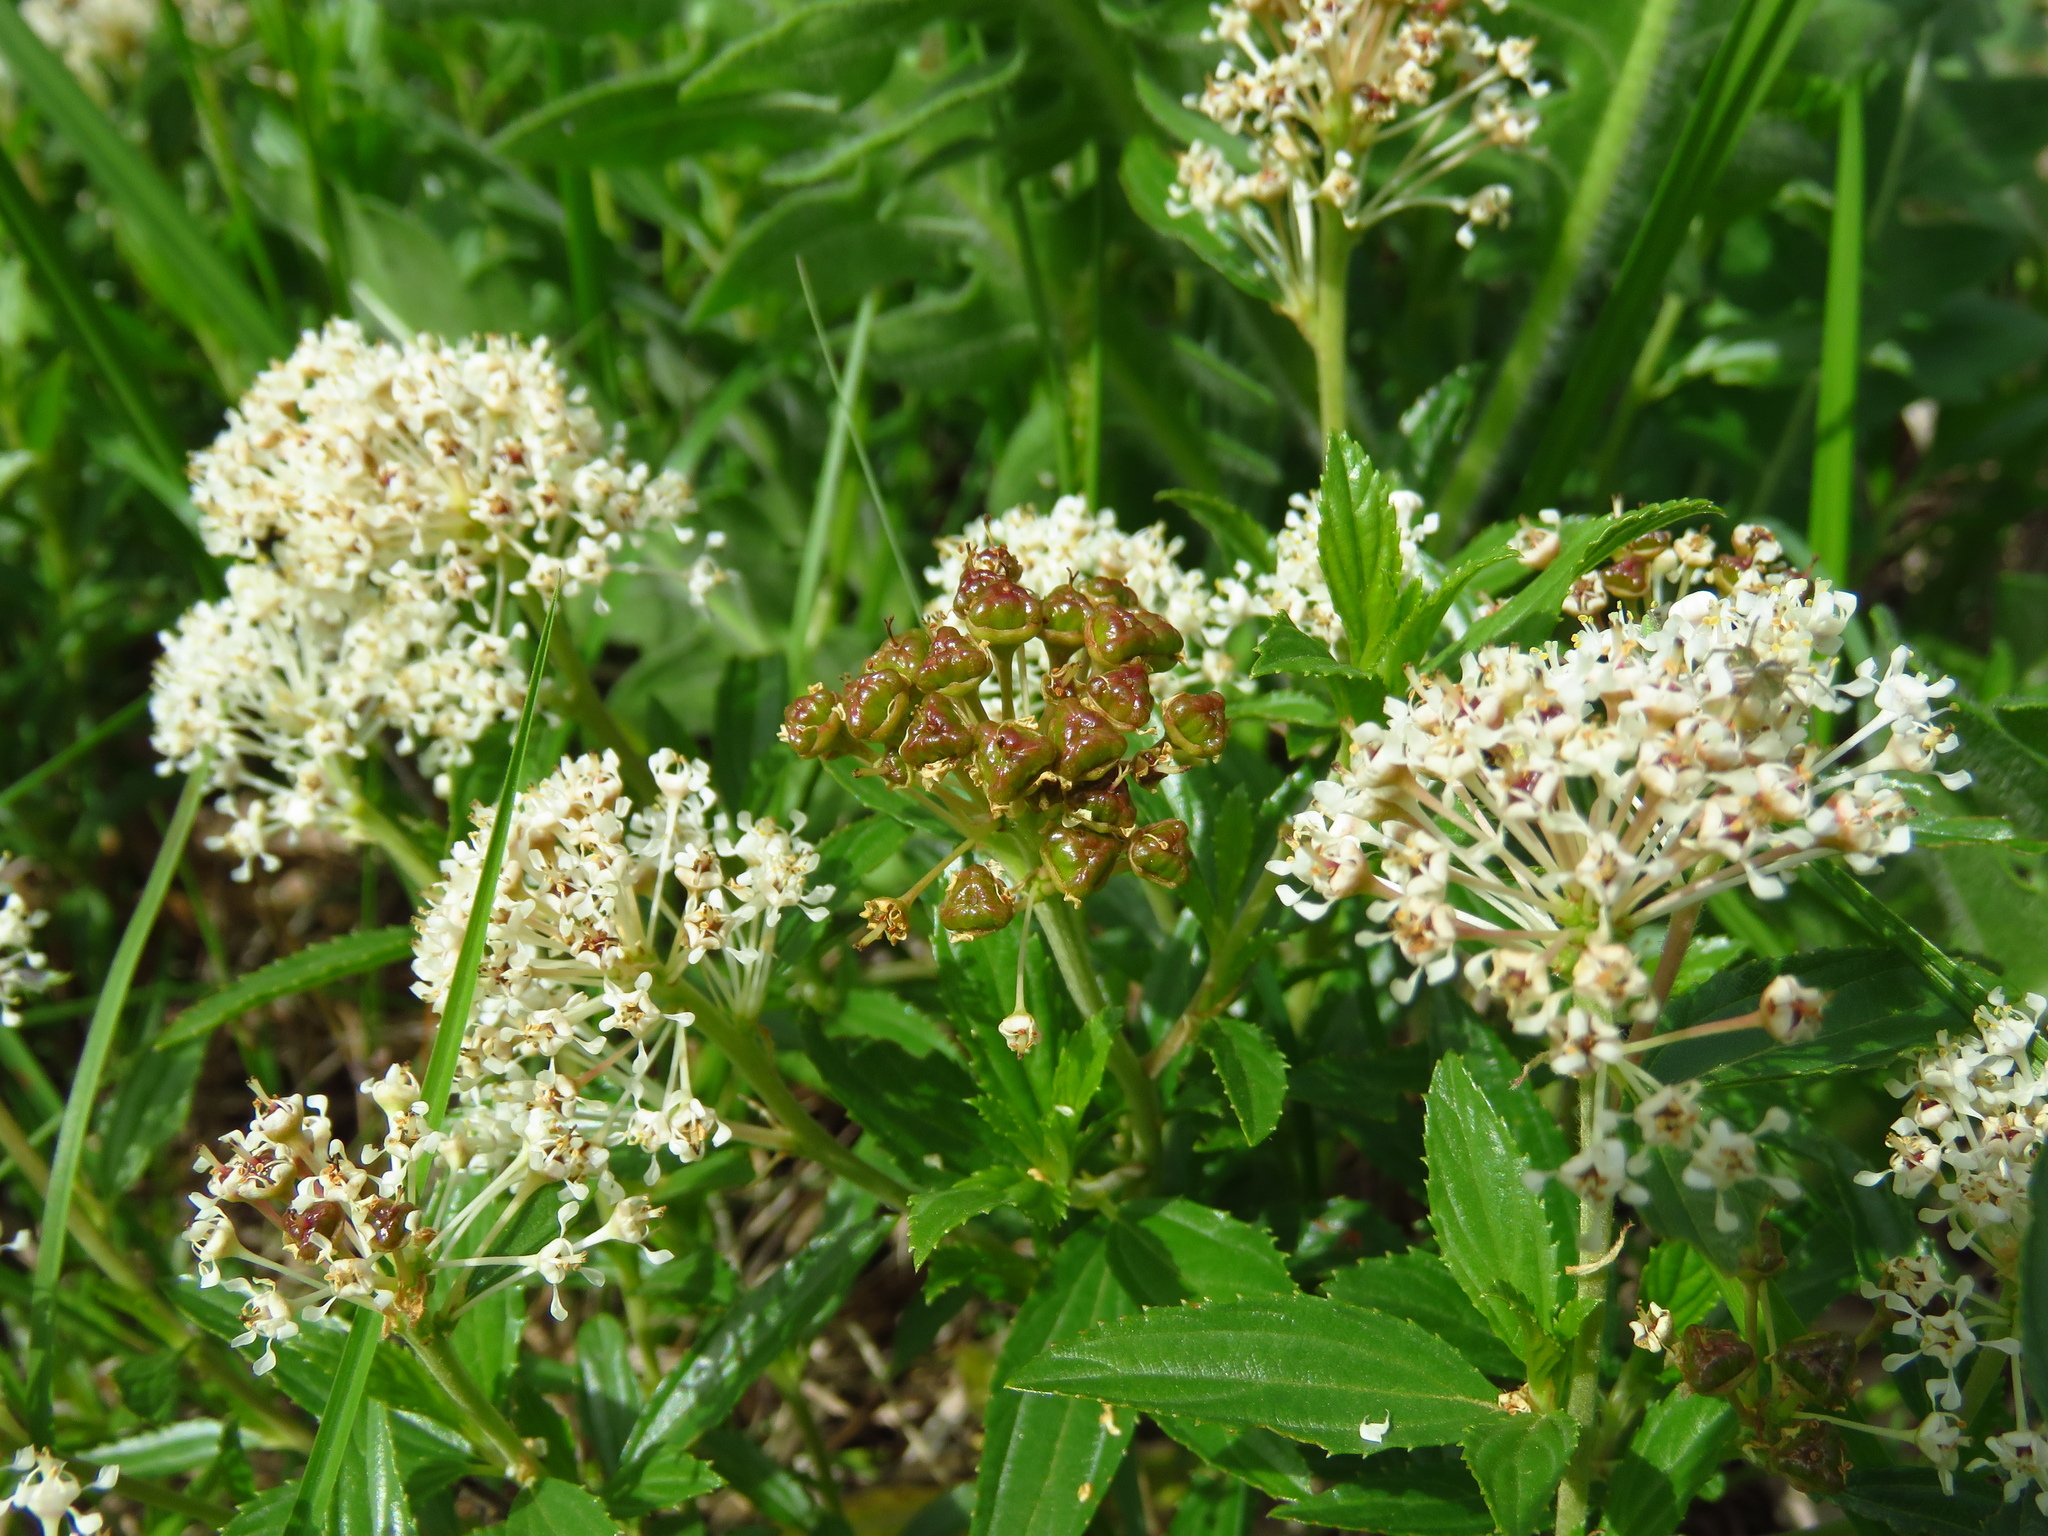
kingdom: Plantae
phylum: Tracheophyta
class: Magnoliopsida
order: Rosales
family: Rhamnaceae
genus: Ceanothus
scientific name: Ceanothus herbaceus
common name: Inland ceanothus
